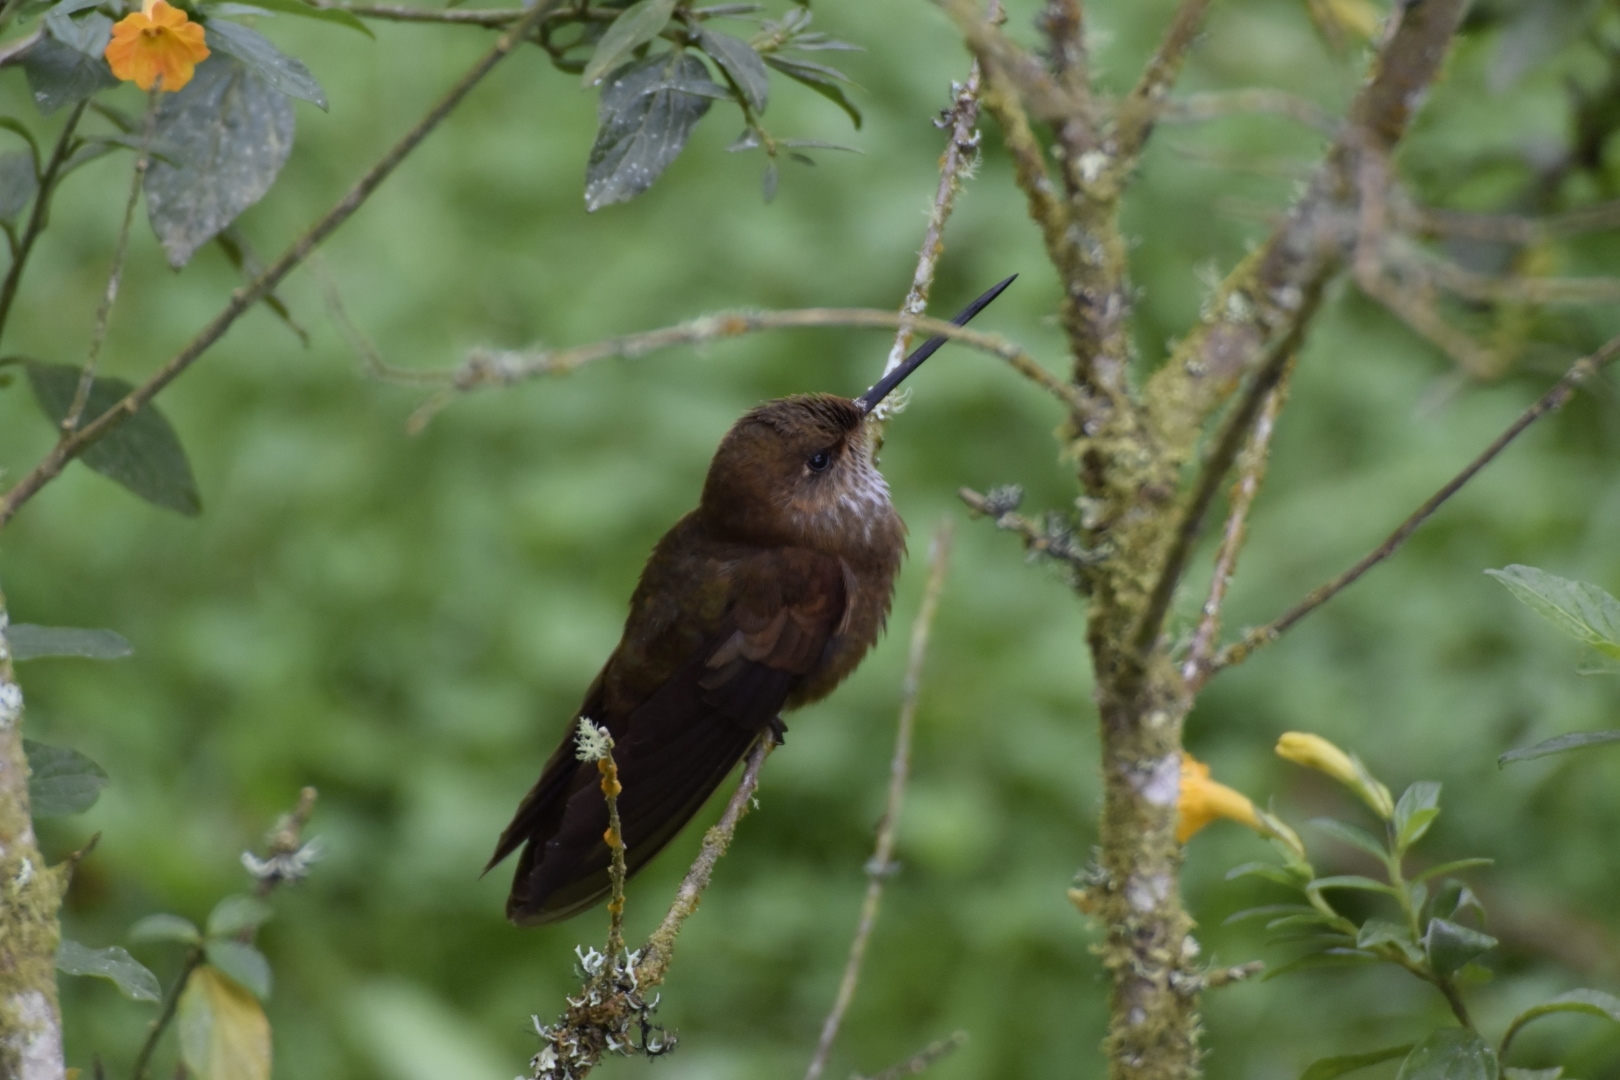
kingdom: Animalia
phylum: Chordata
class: Aves
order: Apodiformes
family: Trochilidae
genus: Coeligena
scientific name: Coeligena coeligena
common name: Bronzy inca
